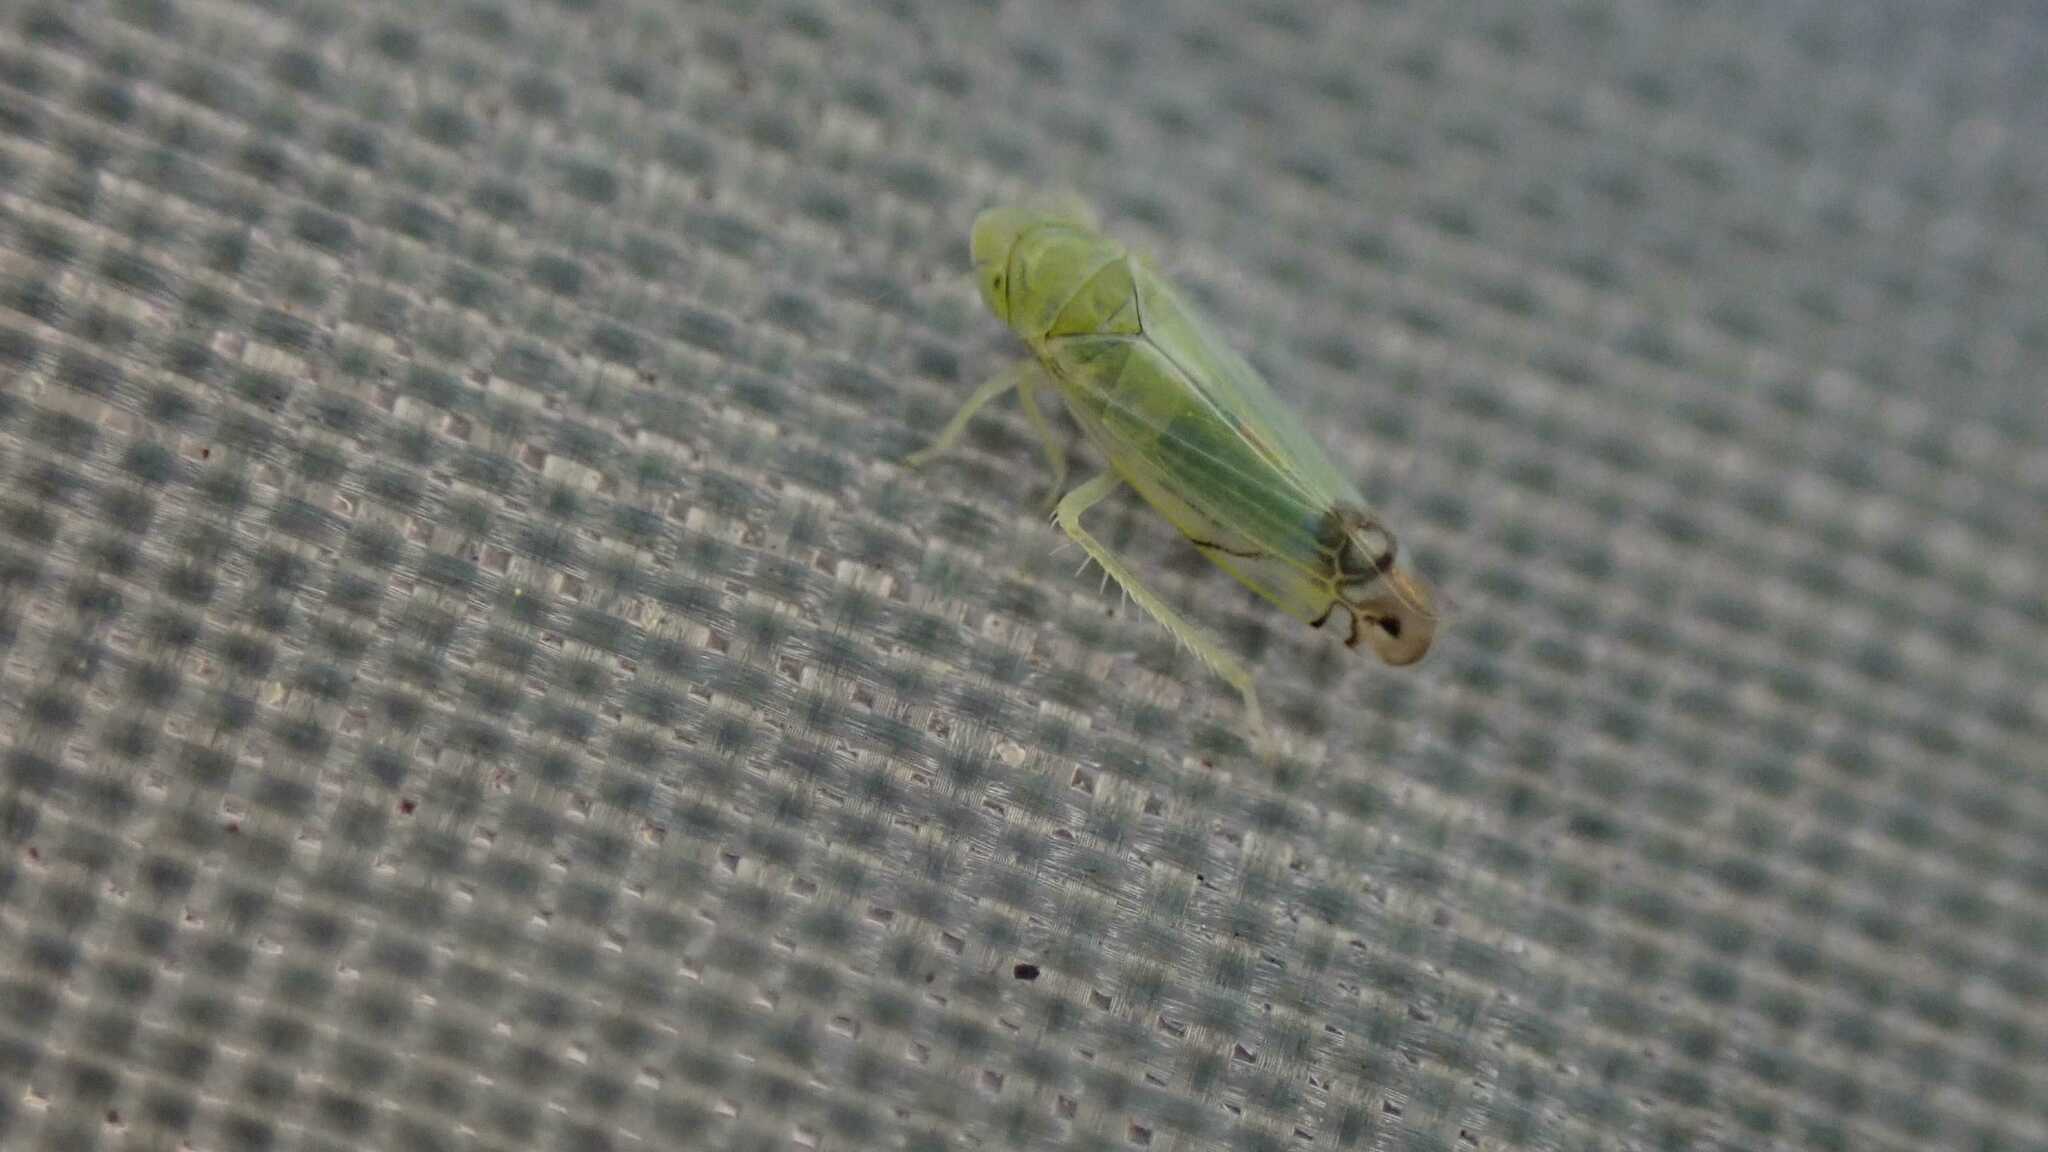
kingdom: Animalia
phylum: Arthropoda
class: Insecta
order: Hemiptera
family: Cicadellidae
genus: Zyginella
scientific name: Zyginella pulchra
